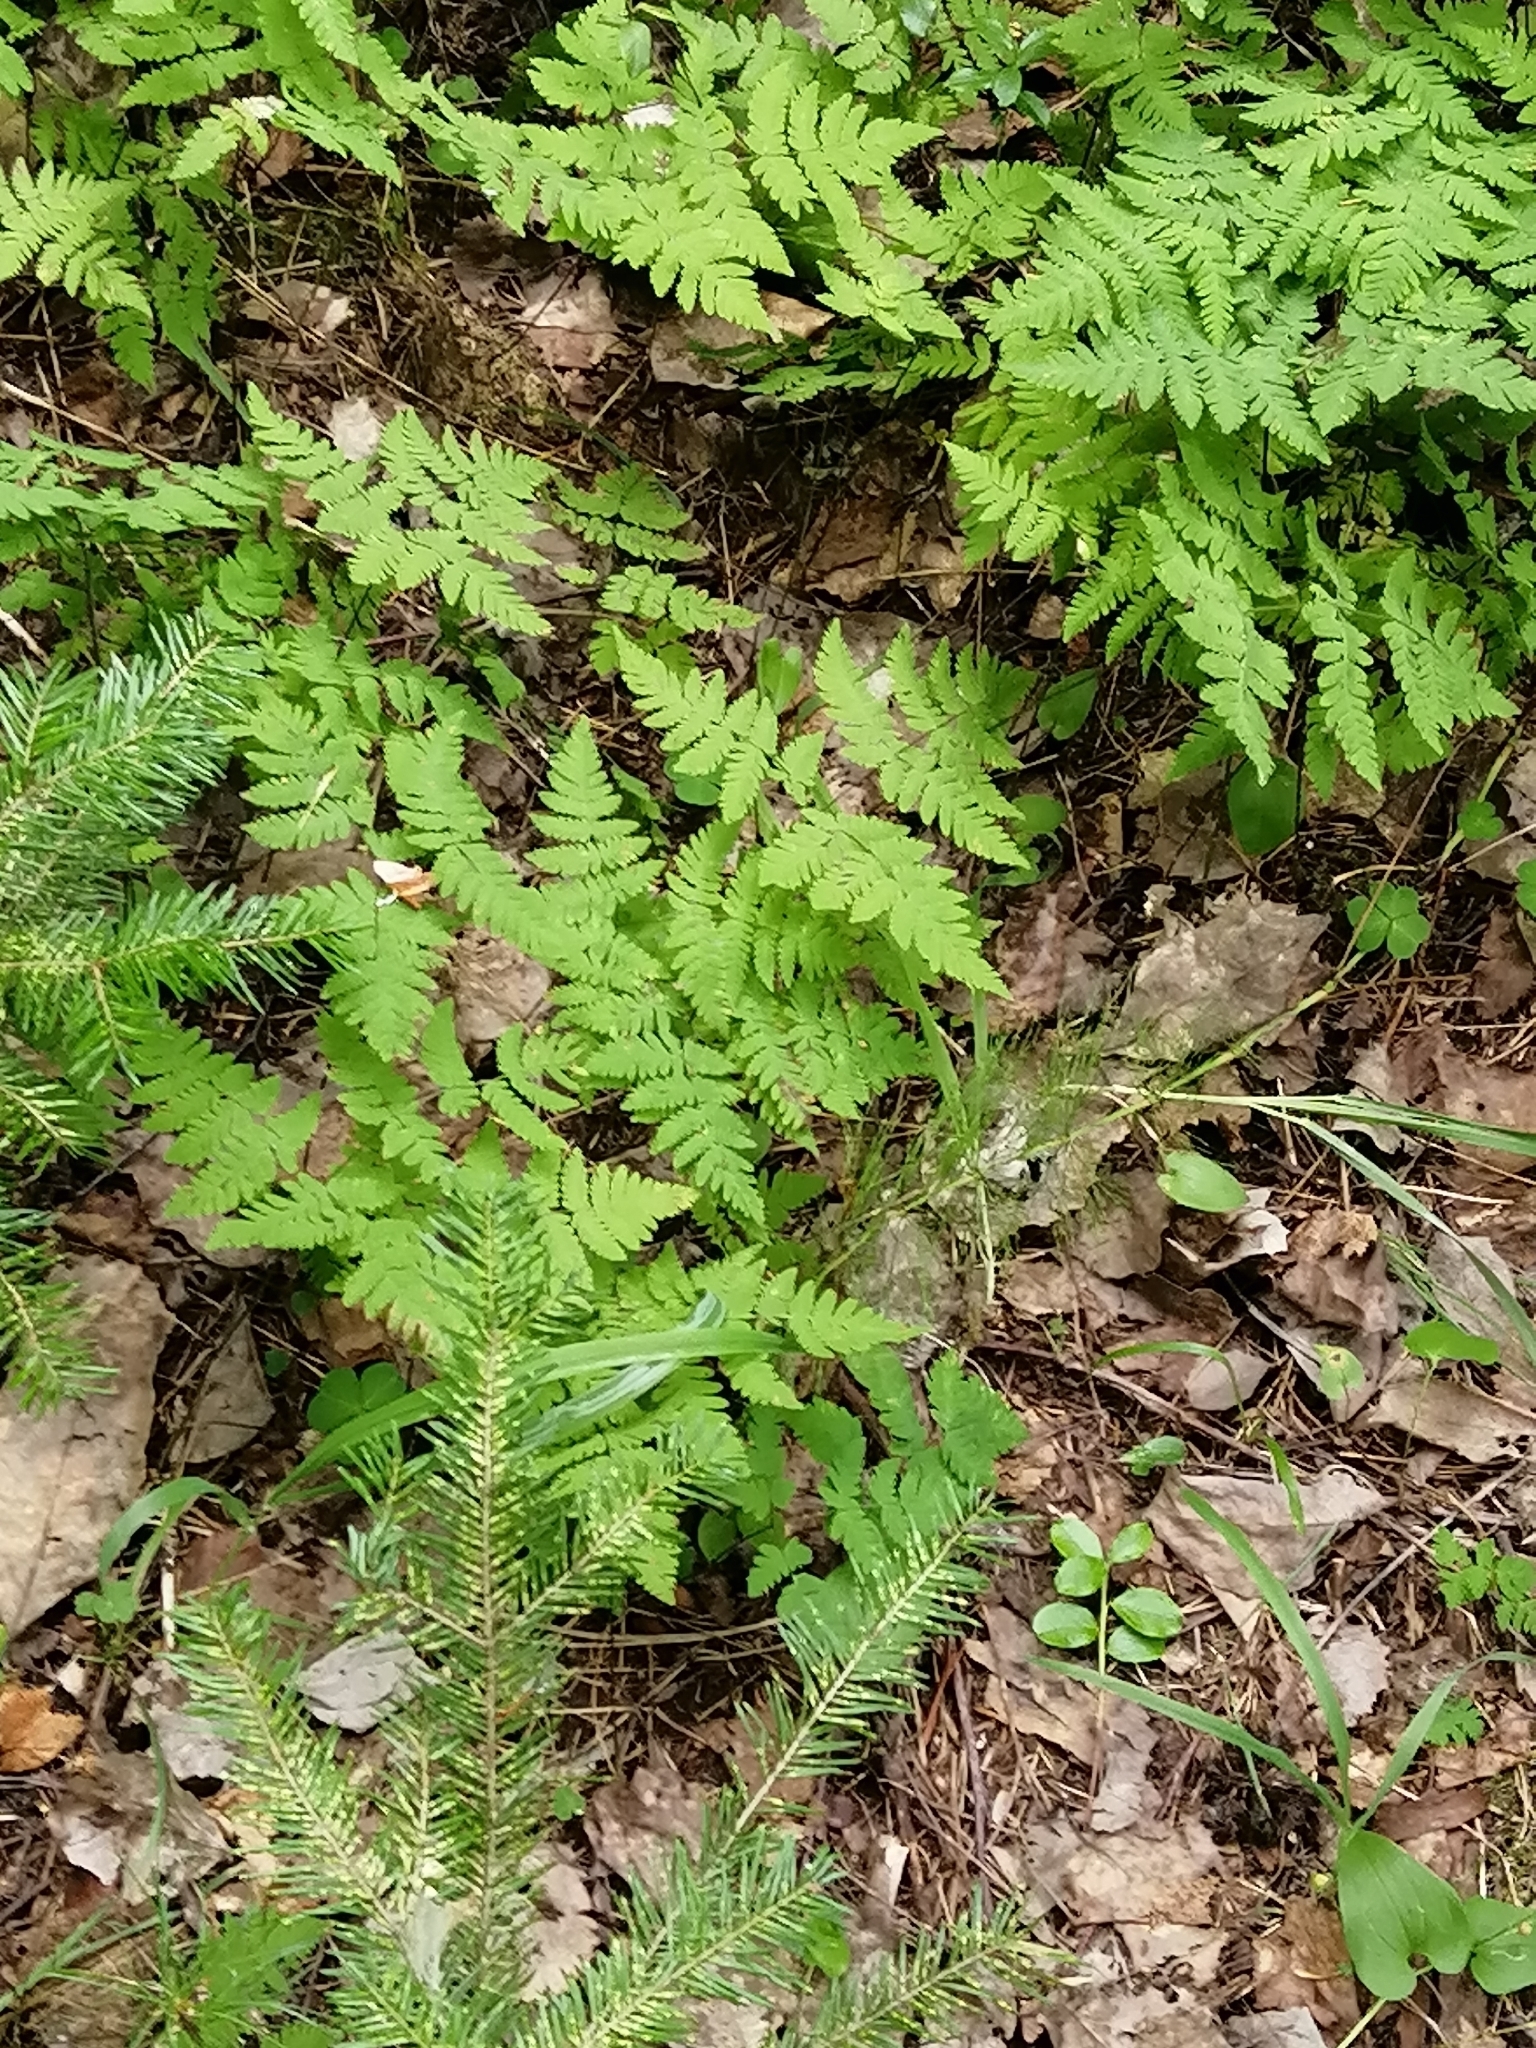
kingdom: Plantae
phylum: Tracheophyta
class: Polypodiopsida
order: Polypodiales
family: Cystopteridaceae
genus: Gymnocarpium
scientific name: Gymnocarpium dryopteris
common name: Oak fern
